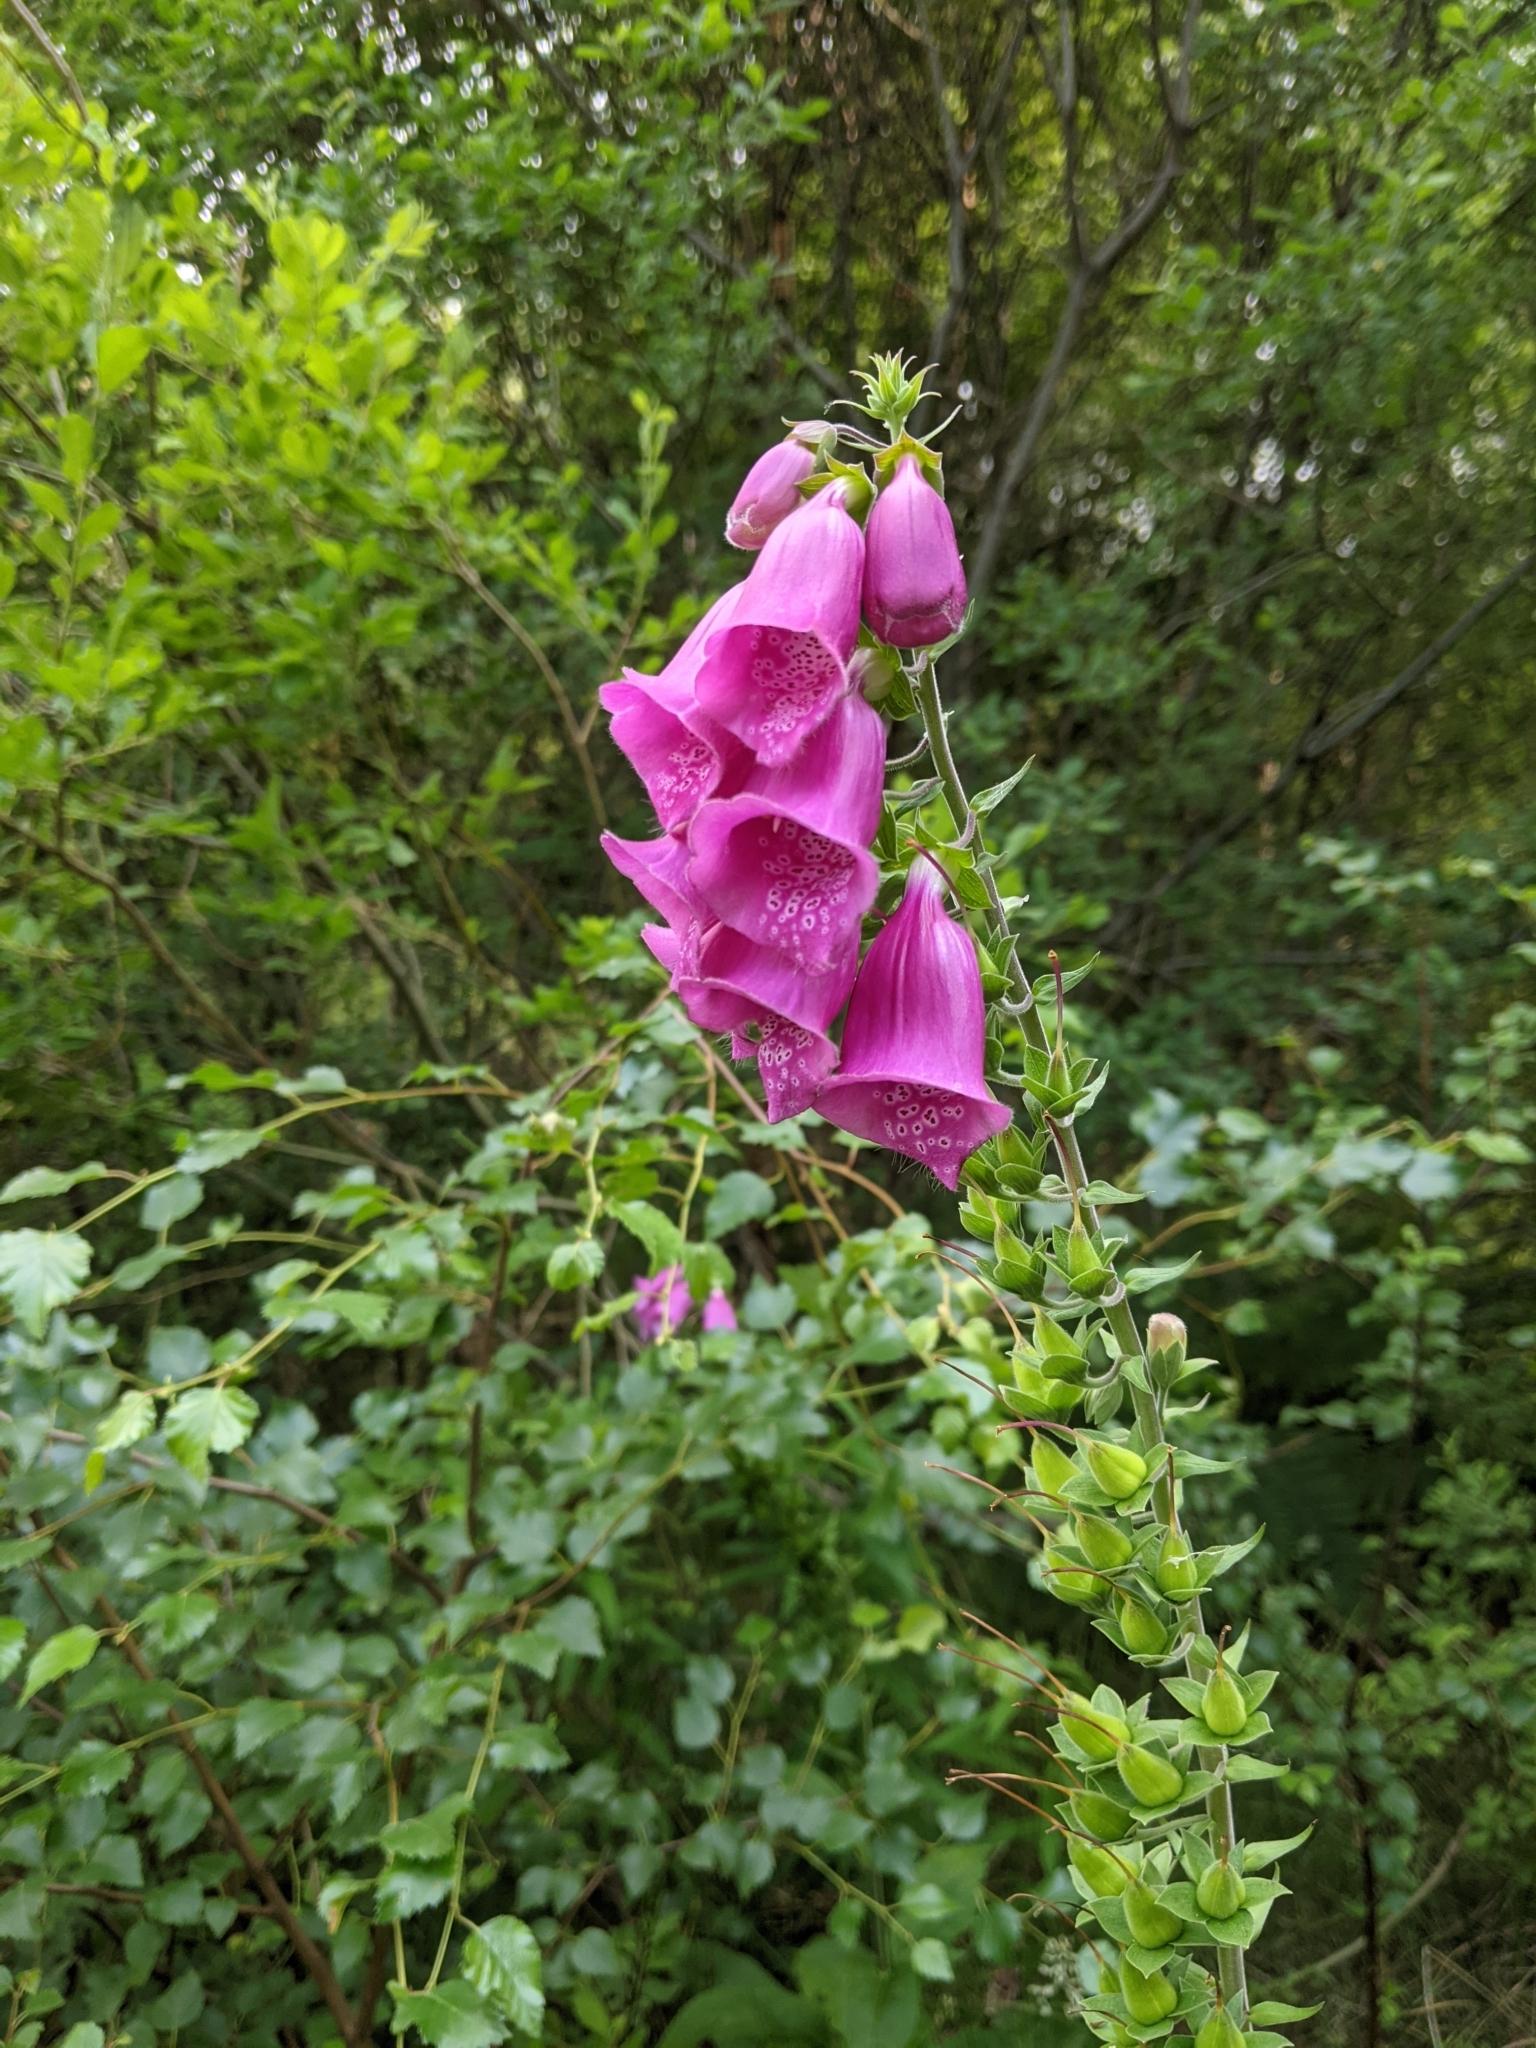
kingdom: Plantae
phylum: Tracheophyta
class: Magnoliopsida
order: Lamiales
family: Plantaginaceae
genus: Digitalis
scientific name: Digitalis purpurea
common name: Foxglove
